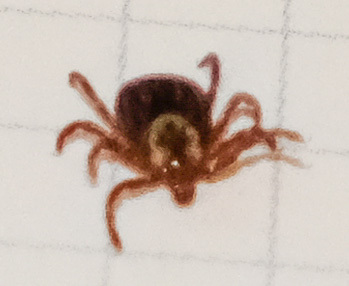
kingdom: Animalia
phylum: Arthropoda
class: Arachnida
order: Ixodida
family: Ixodidae
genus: Dermacentor
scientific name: Dermacentor variabilis
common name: American dog tick
